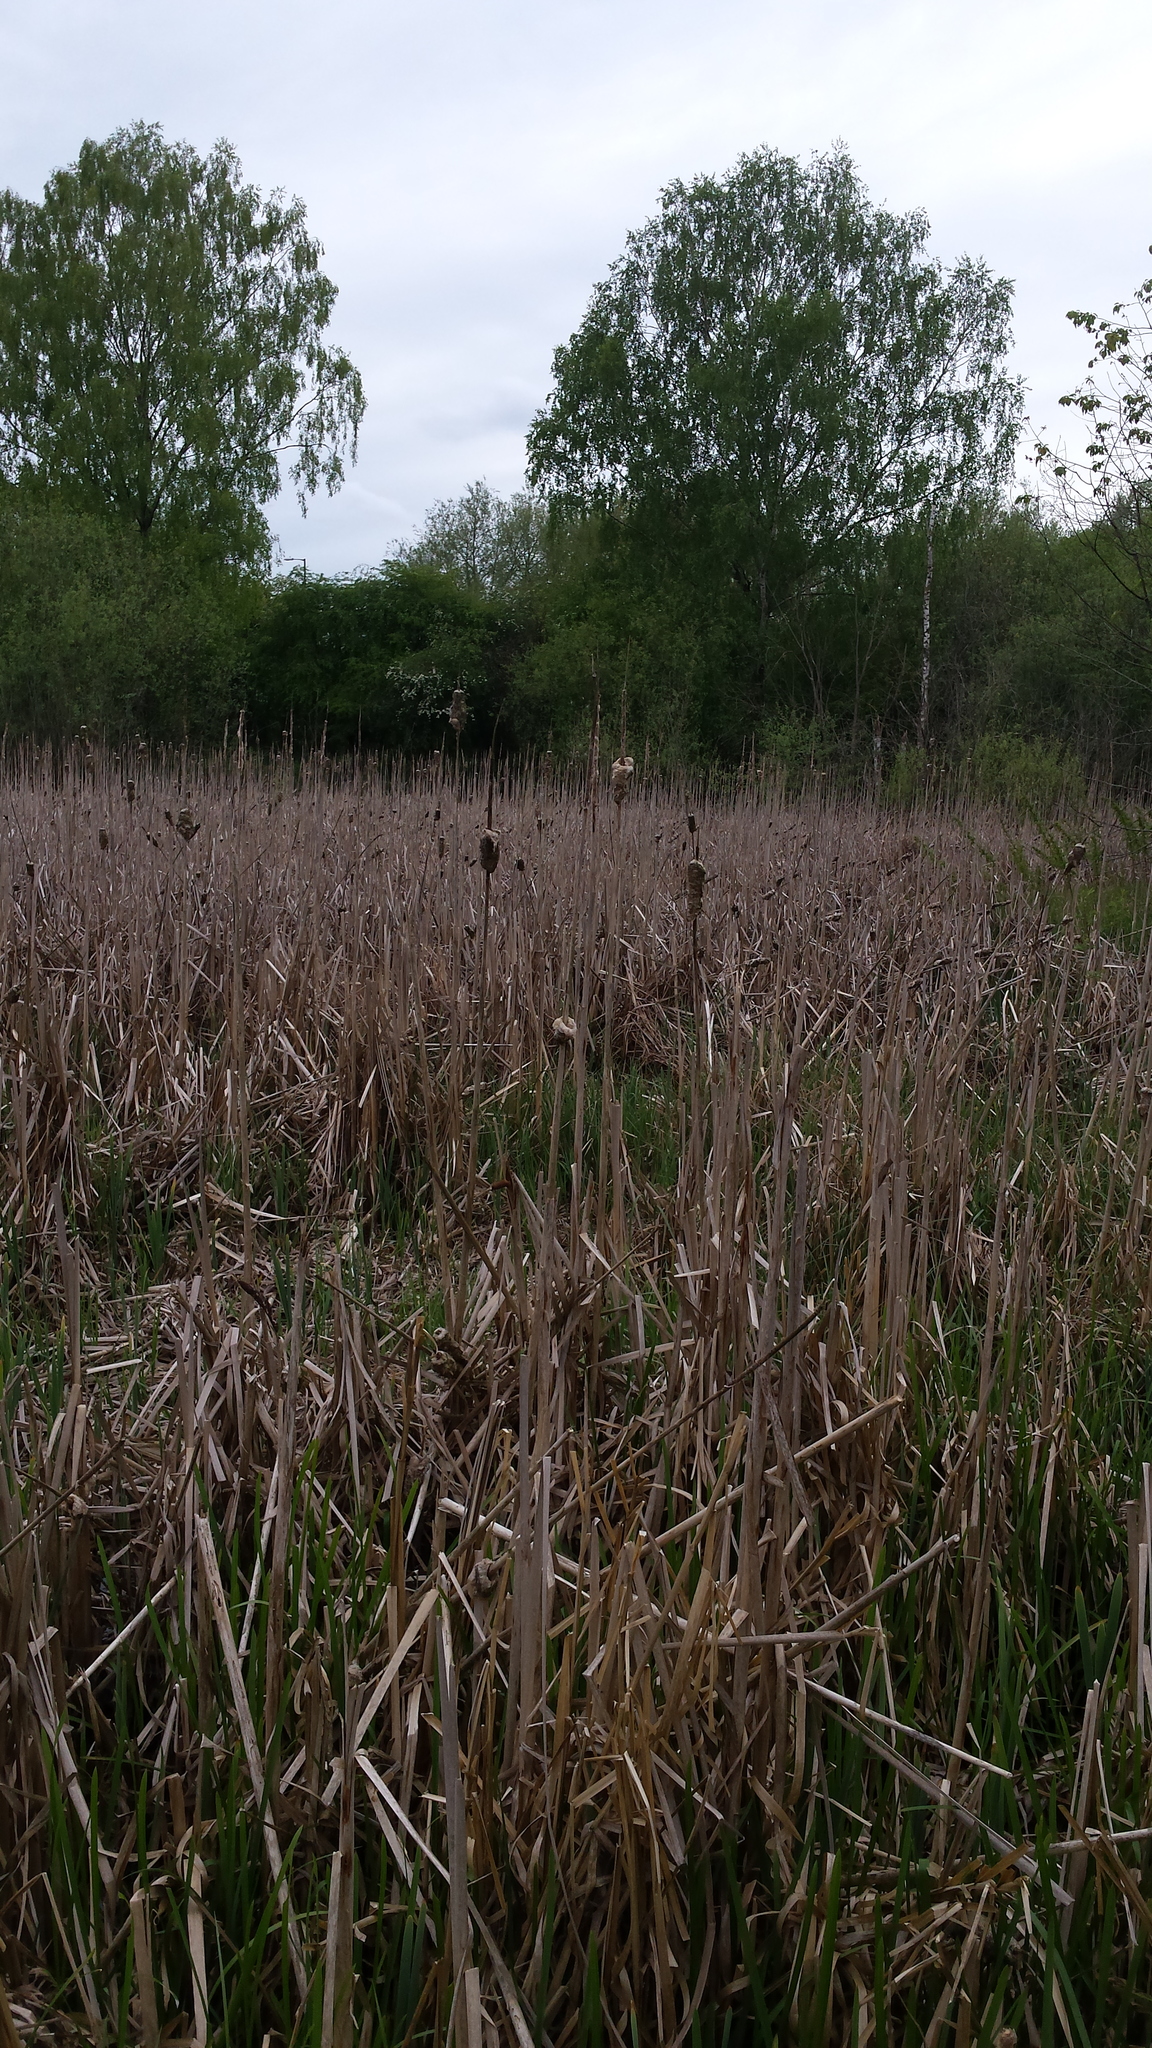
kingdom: Plantae
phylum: Tracheophyta
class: Liliopsida
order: Poales
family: Typhaceae
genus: Typha
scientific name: Typha latifolia
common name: Broadleaf cattail
